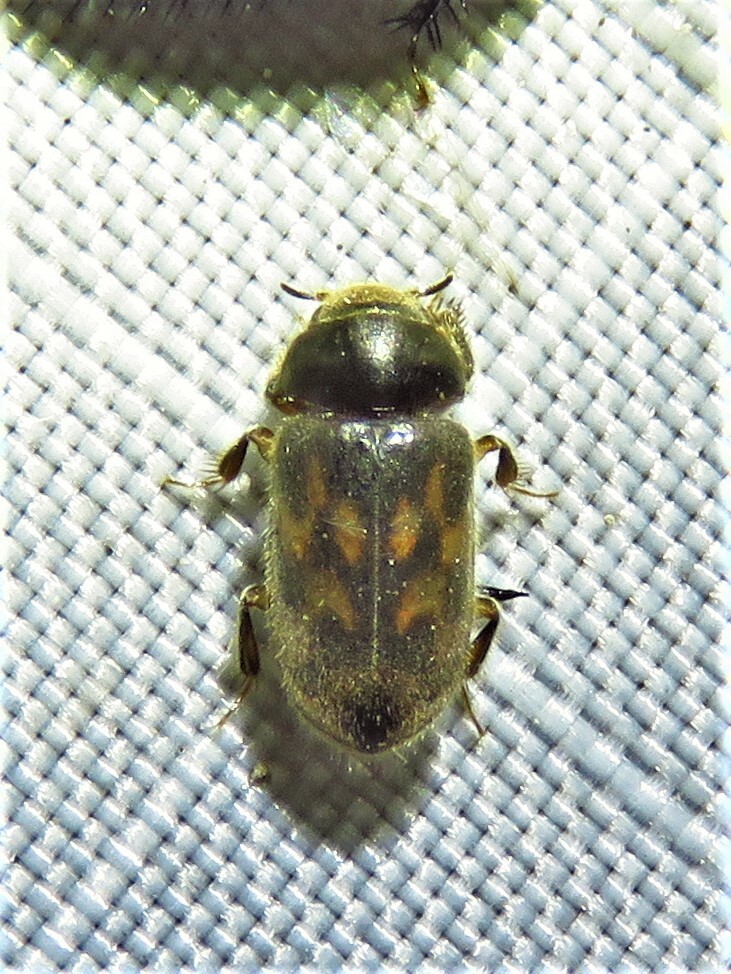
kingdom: Animalia
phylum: Arthropoda
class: Insecta
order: Coleoptera
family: Heteroceridae
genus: Heterocerus
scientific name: Heterocerus fenestratus
